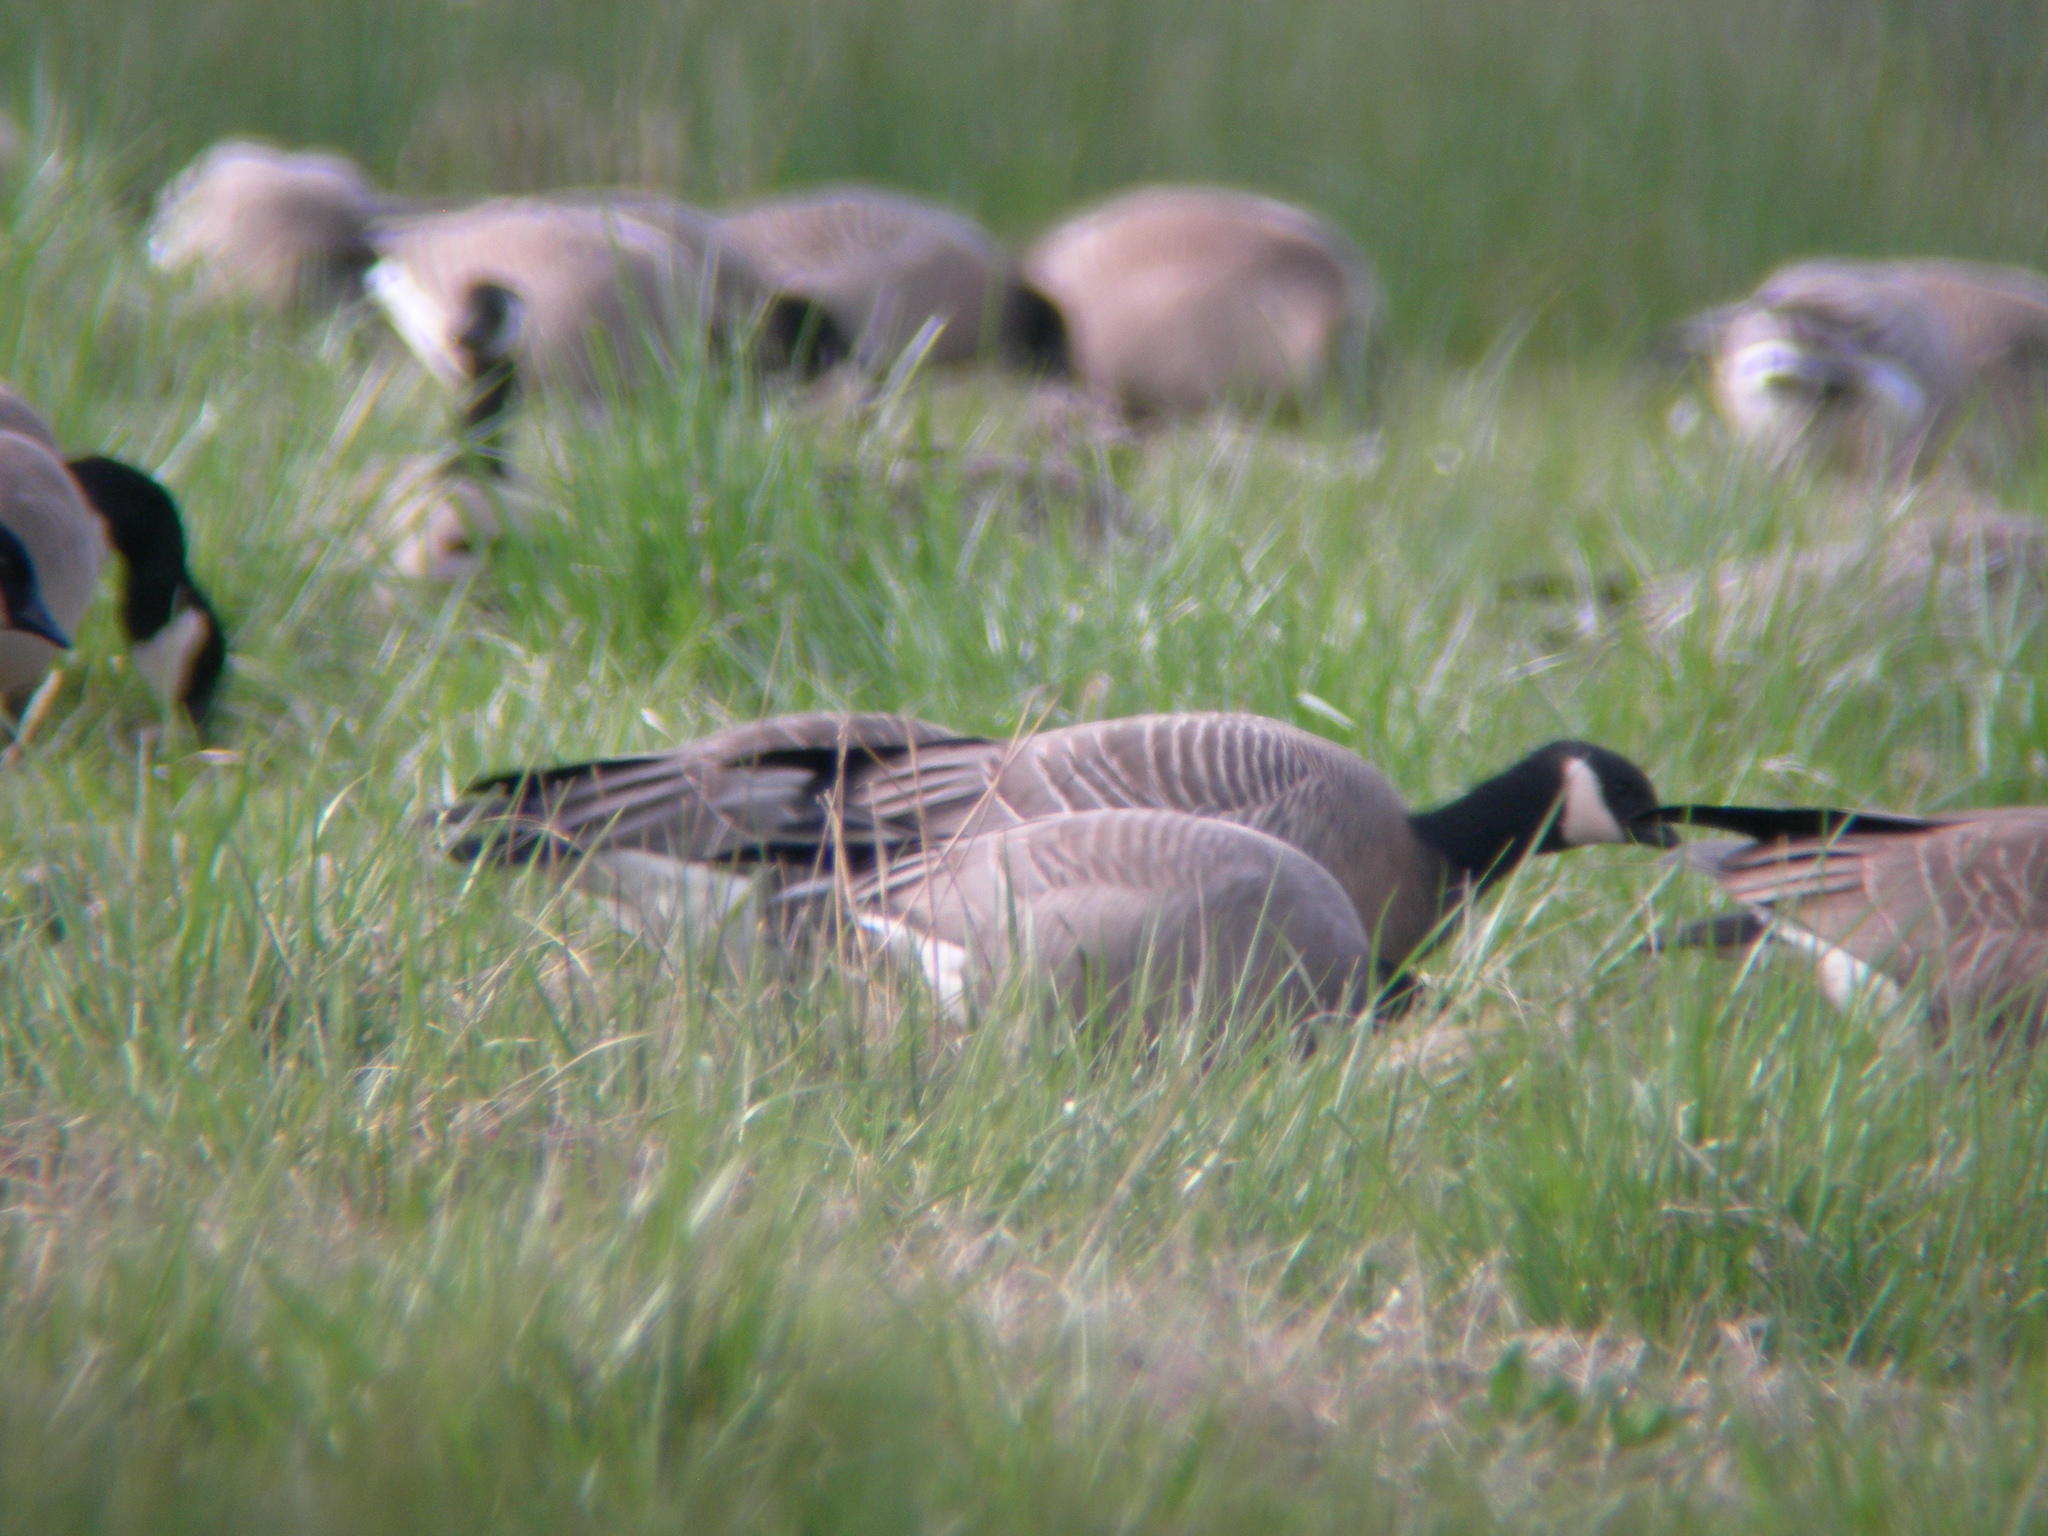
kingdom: Animalia
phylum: Chordata
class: Aves
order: Anseriformes
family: Anatidae
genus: Branta
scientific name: Branta canadensis
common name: Canada goose
